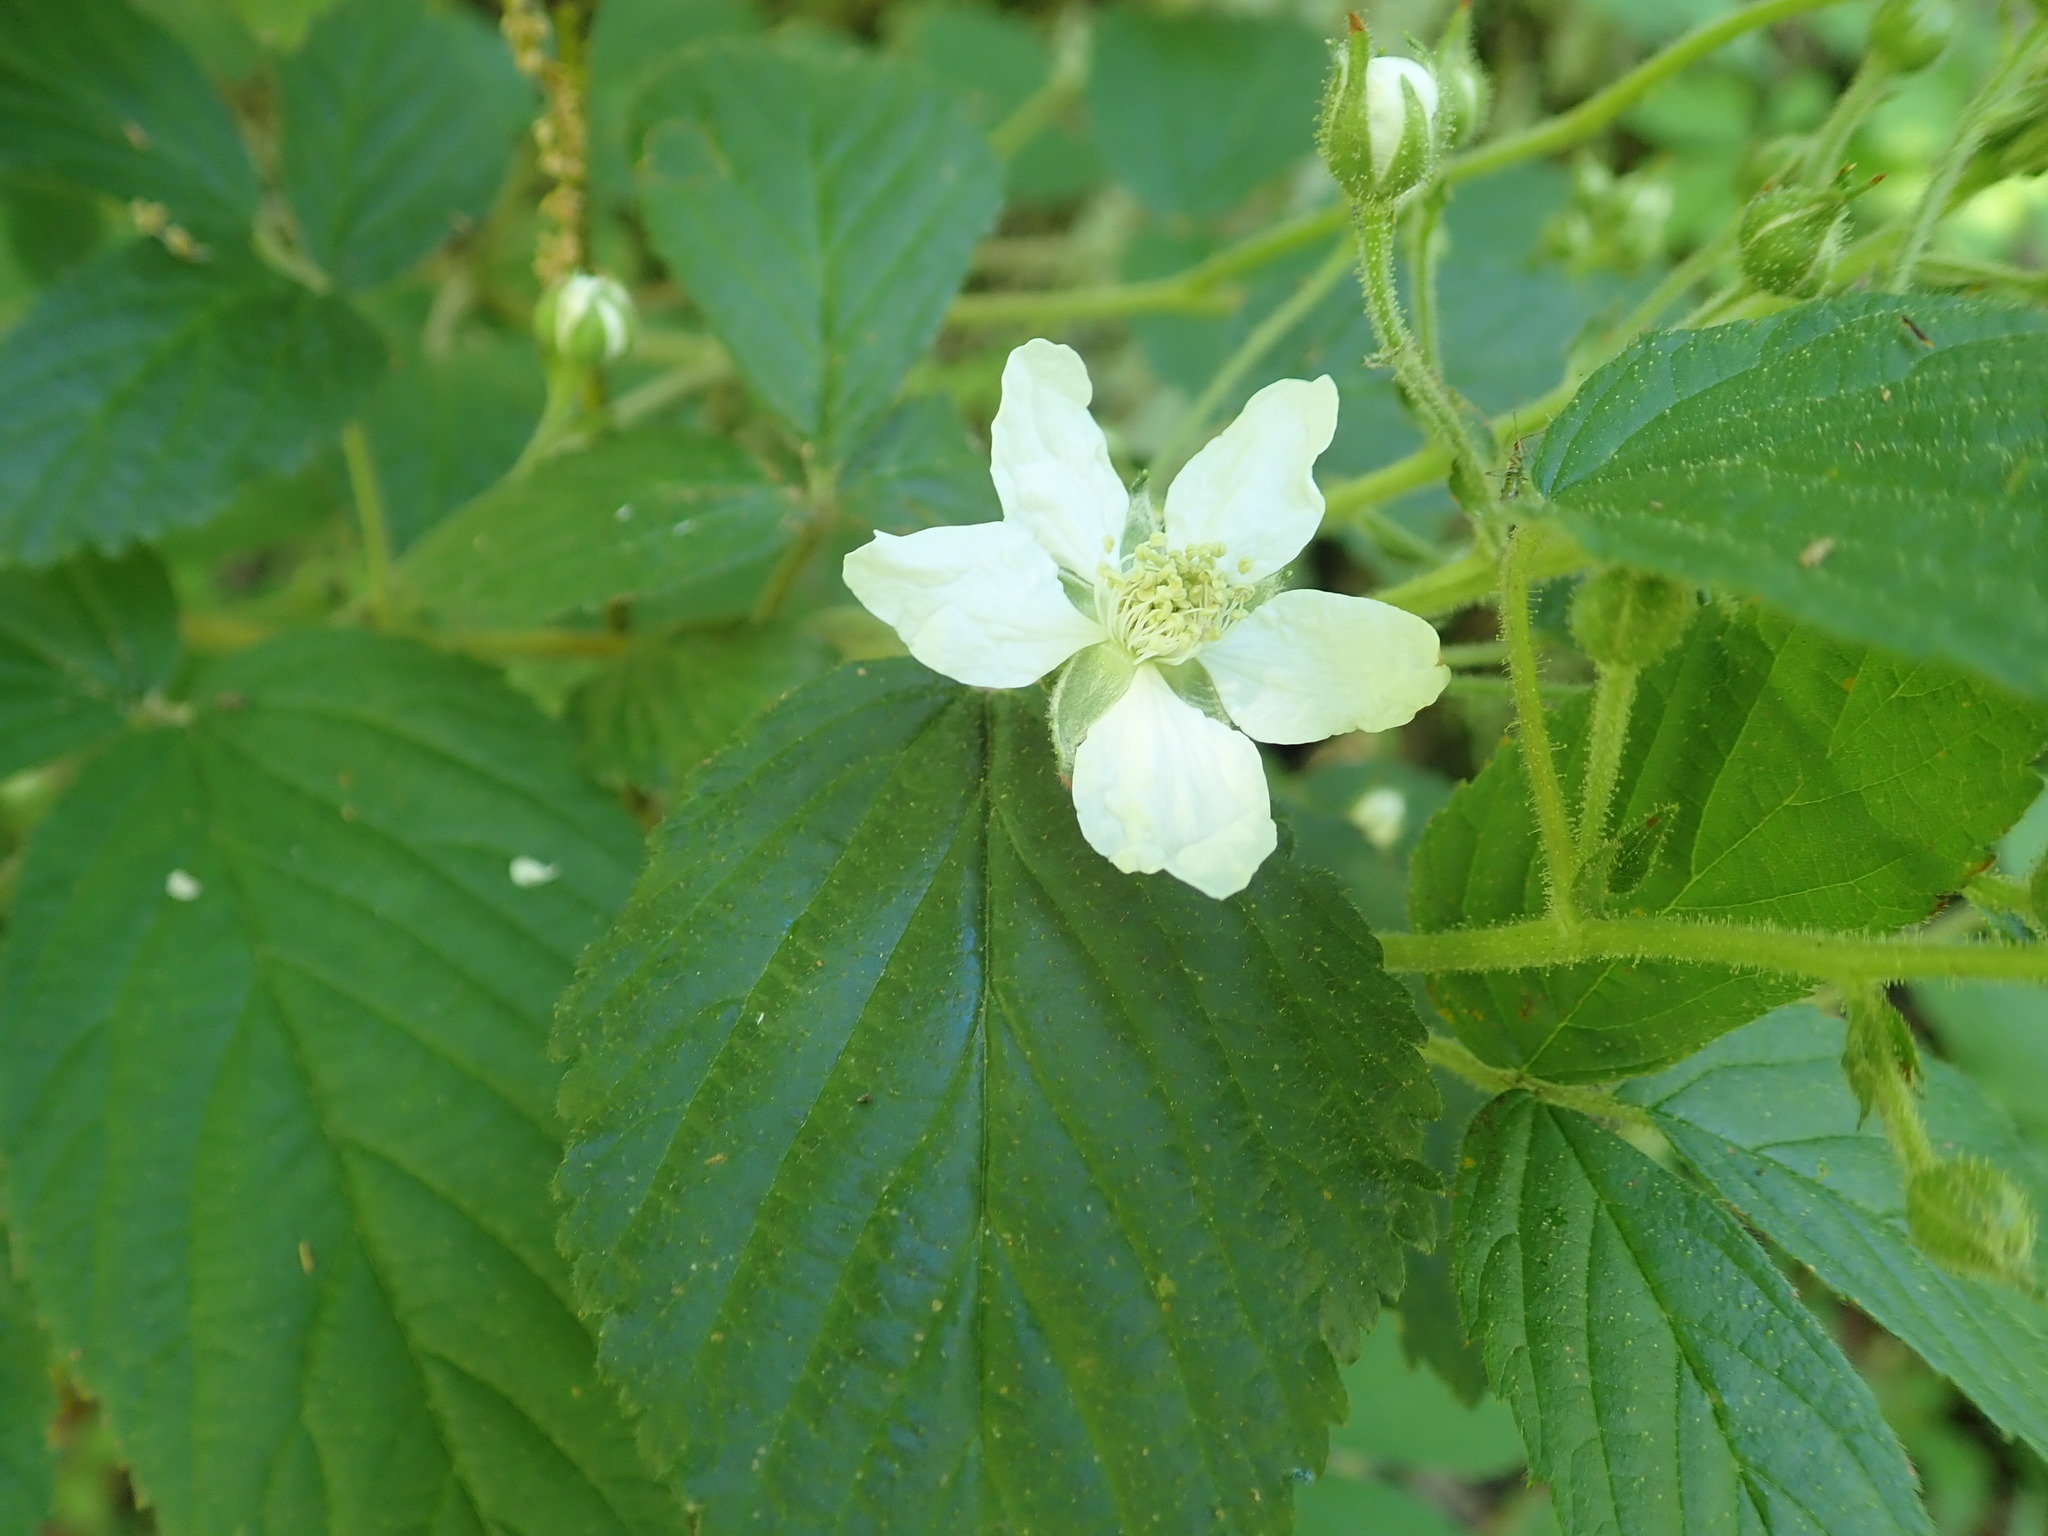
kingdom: Plantae
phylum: Tracheophyta
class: Magnoliopsida
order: Rosales
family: Rosaceae
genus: Rubus
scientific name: Rubus allegheniensis
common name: Allegheny blackberry
